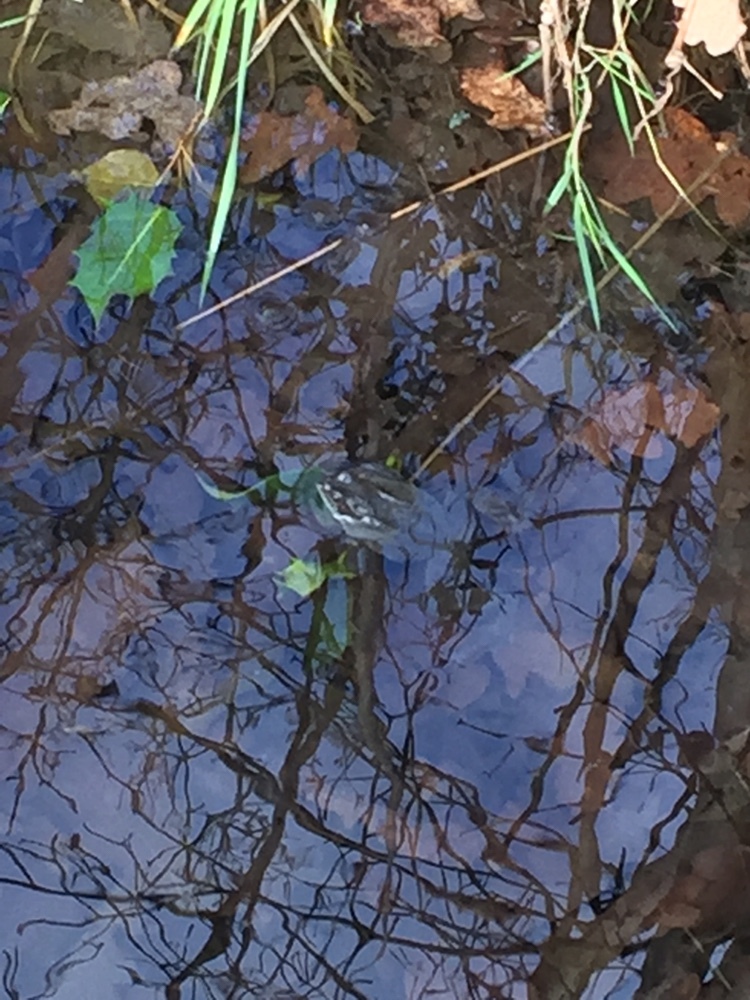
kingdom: Animalia
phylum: Chordata
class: Amphibia
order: Anura
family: Ranidae
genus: Rana
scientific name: Rana temporaria
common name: Common frog
